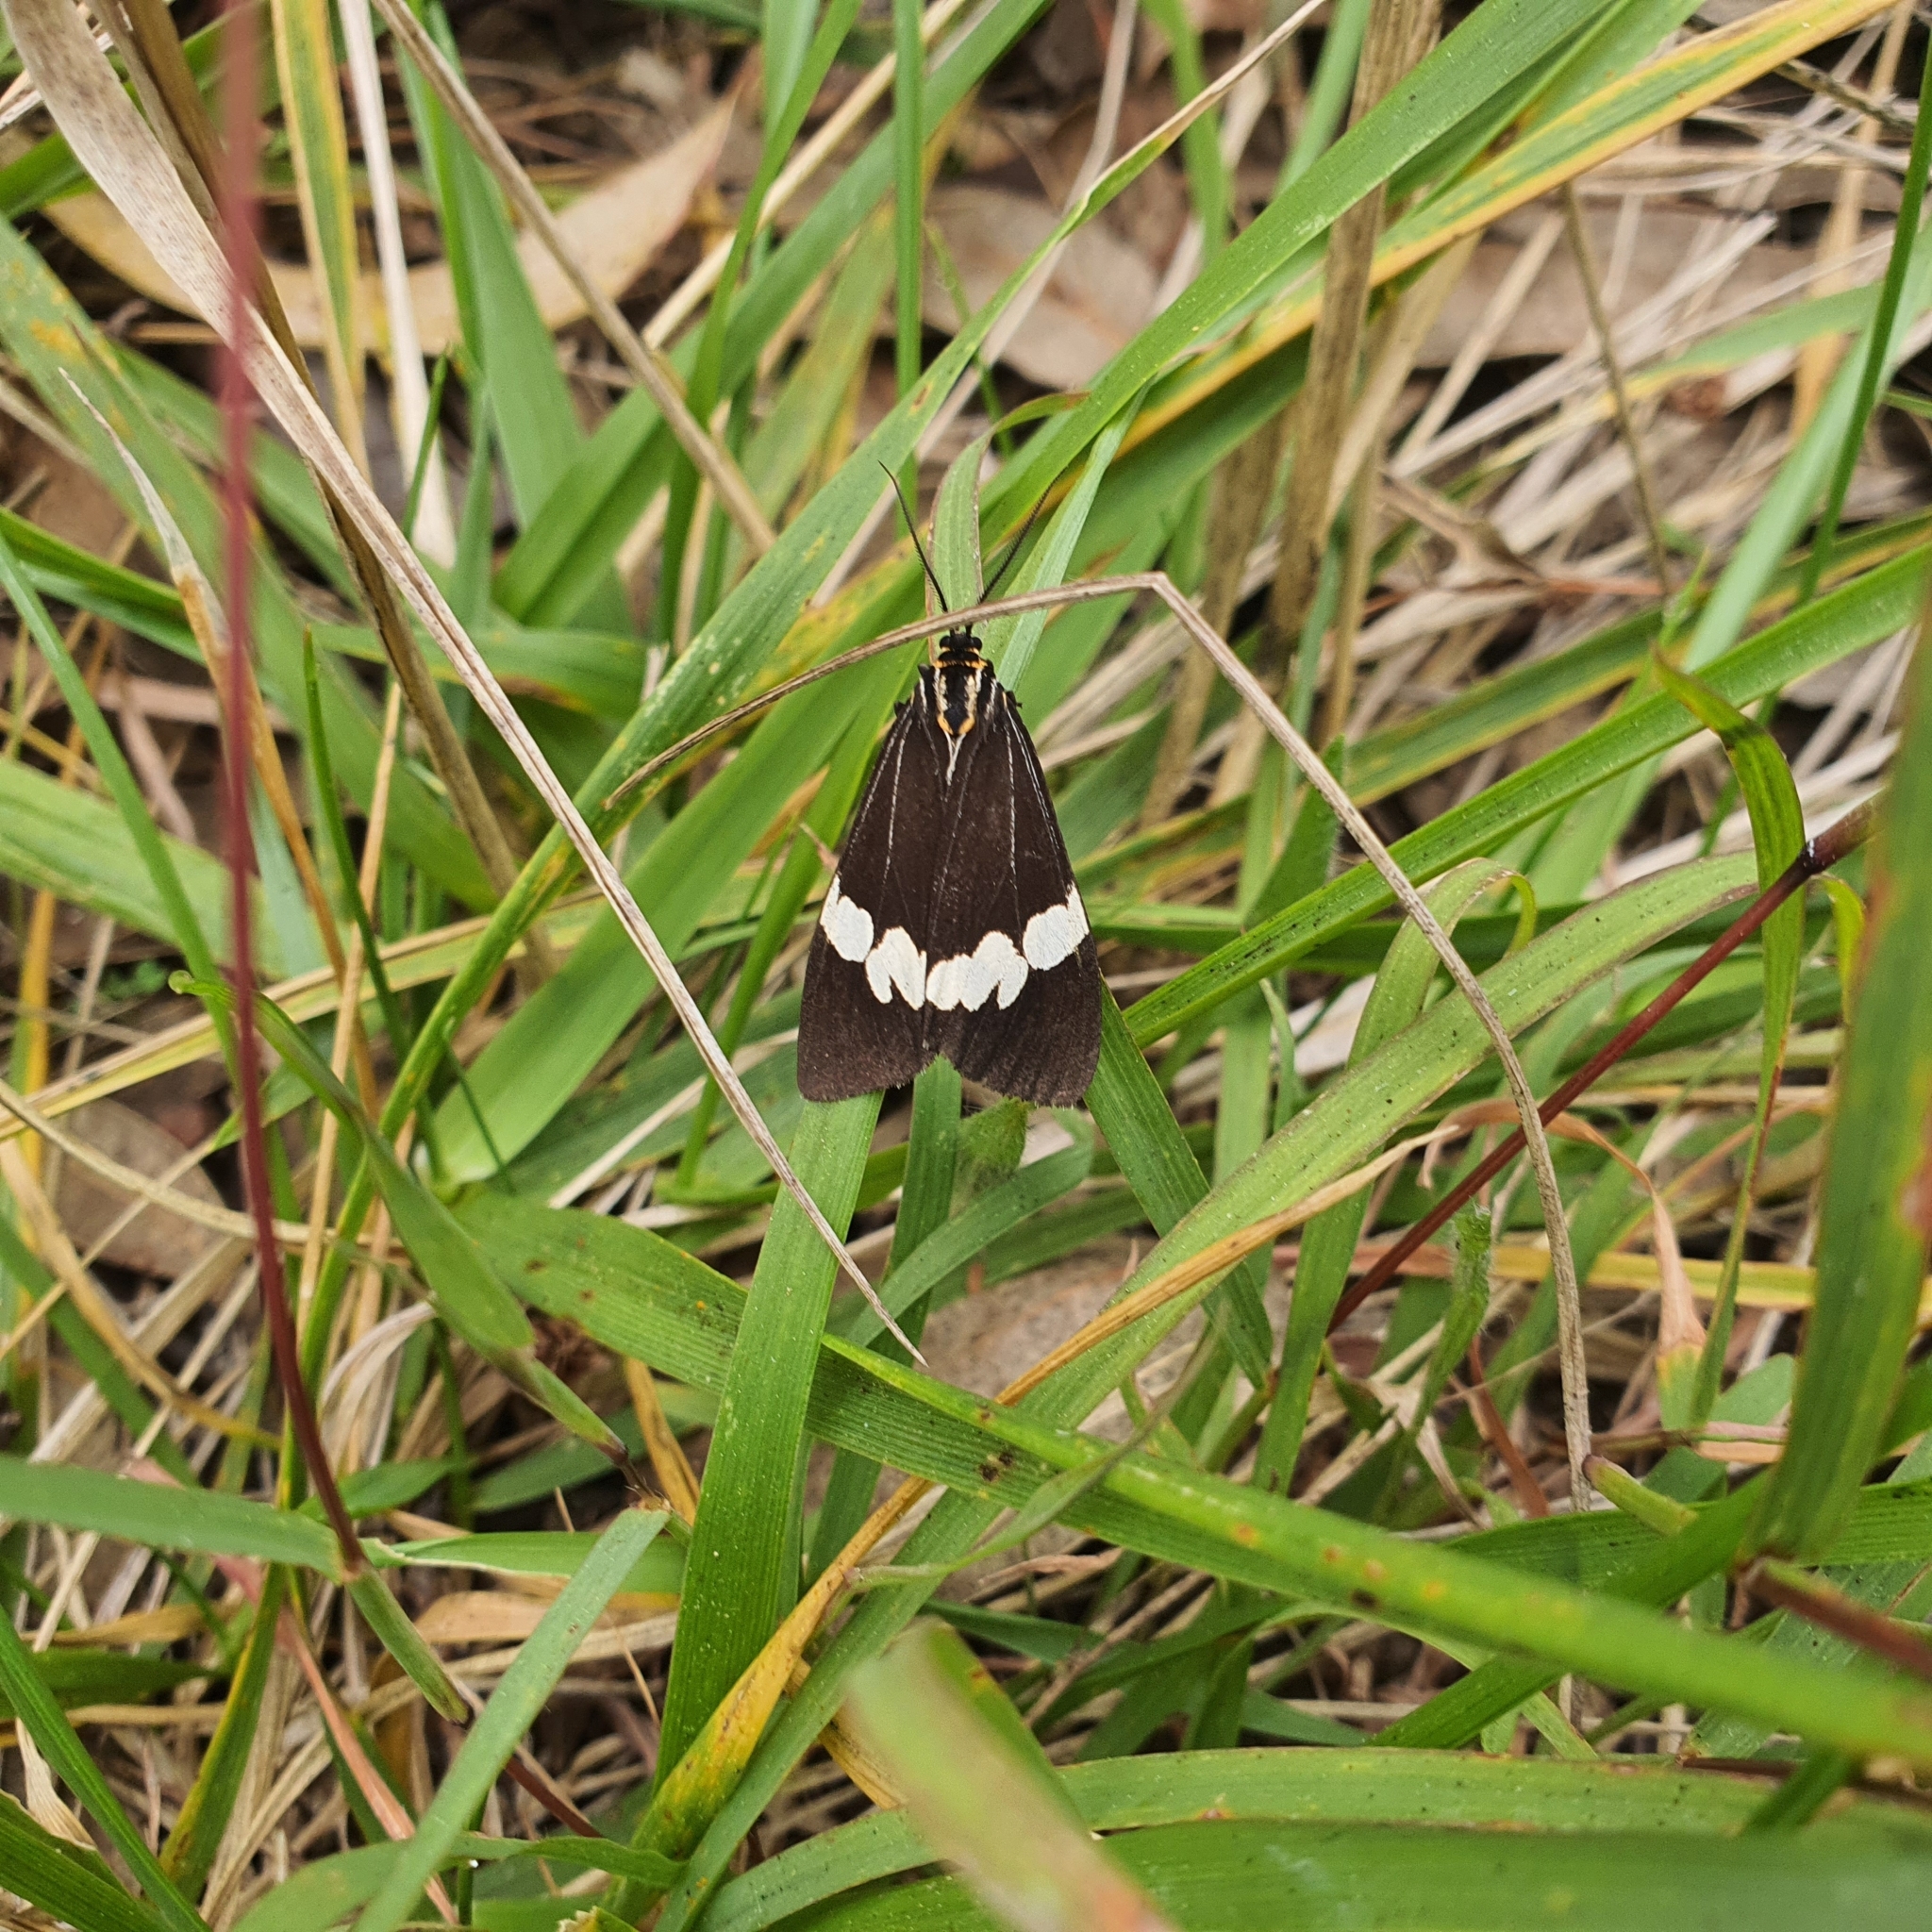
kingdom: Animalia
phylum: Arthropoda
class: Insecta
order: Lepidoptera
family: Erebidae
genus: Nyctemera
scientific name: Nyctemera amicus
